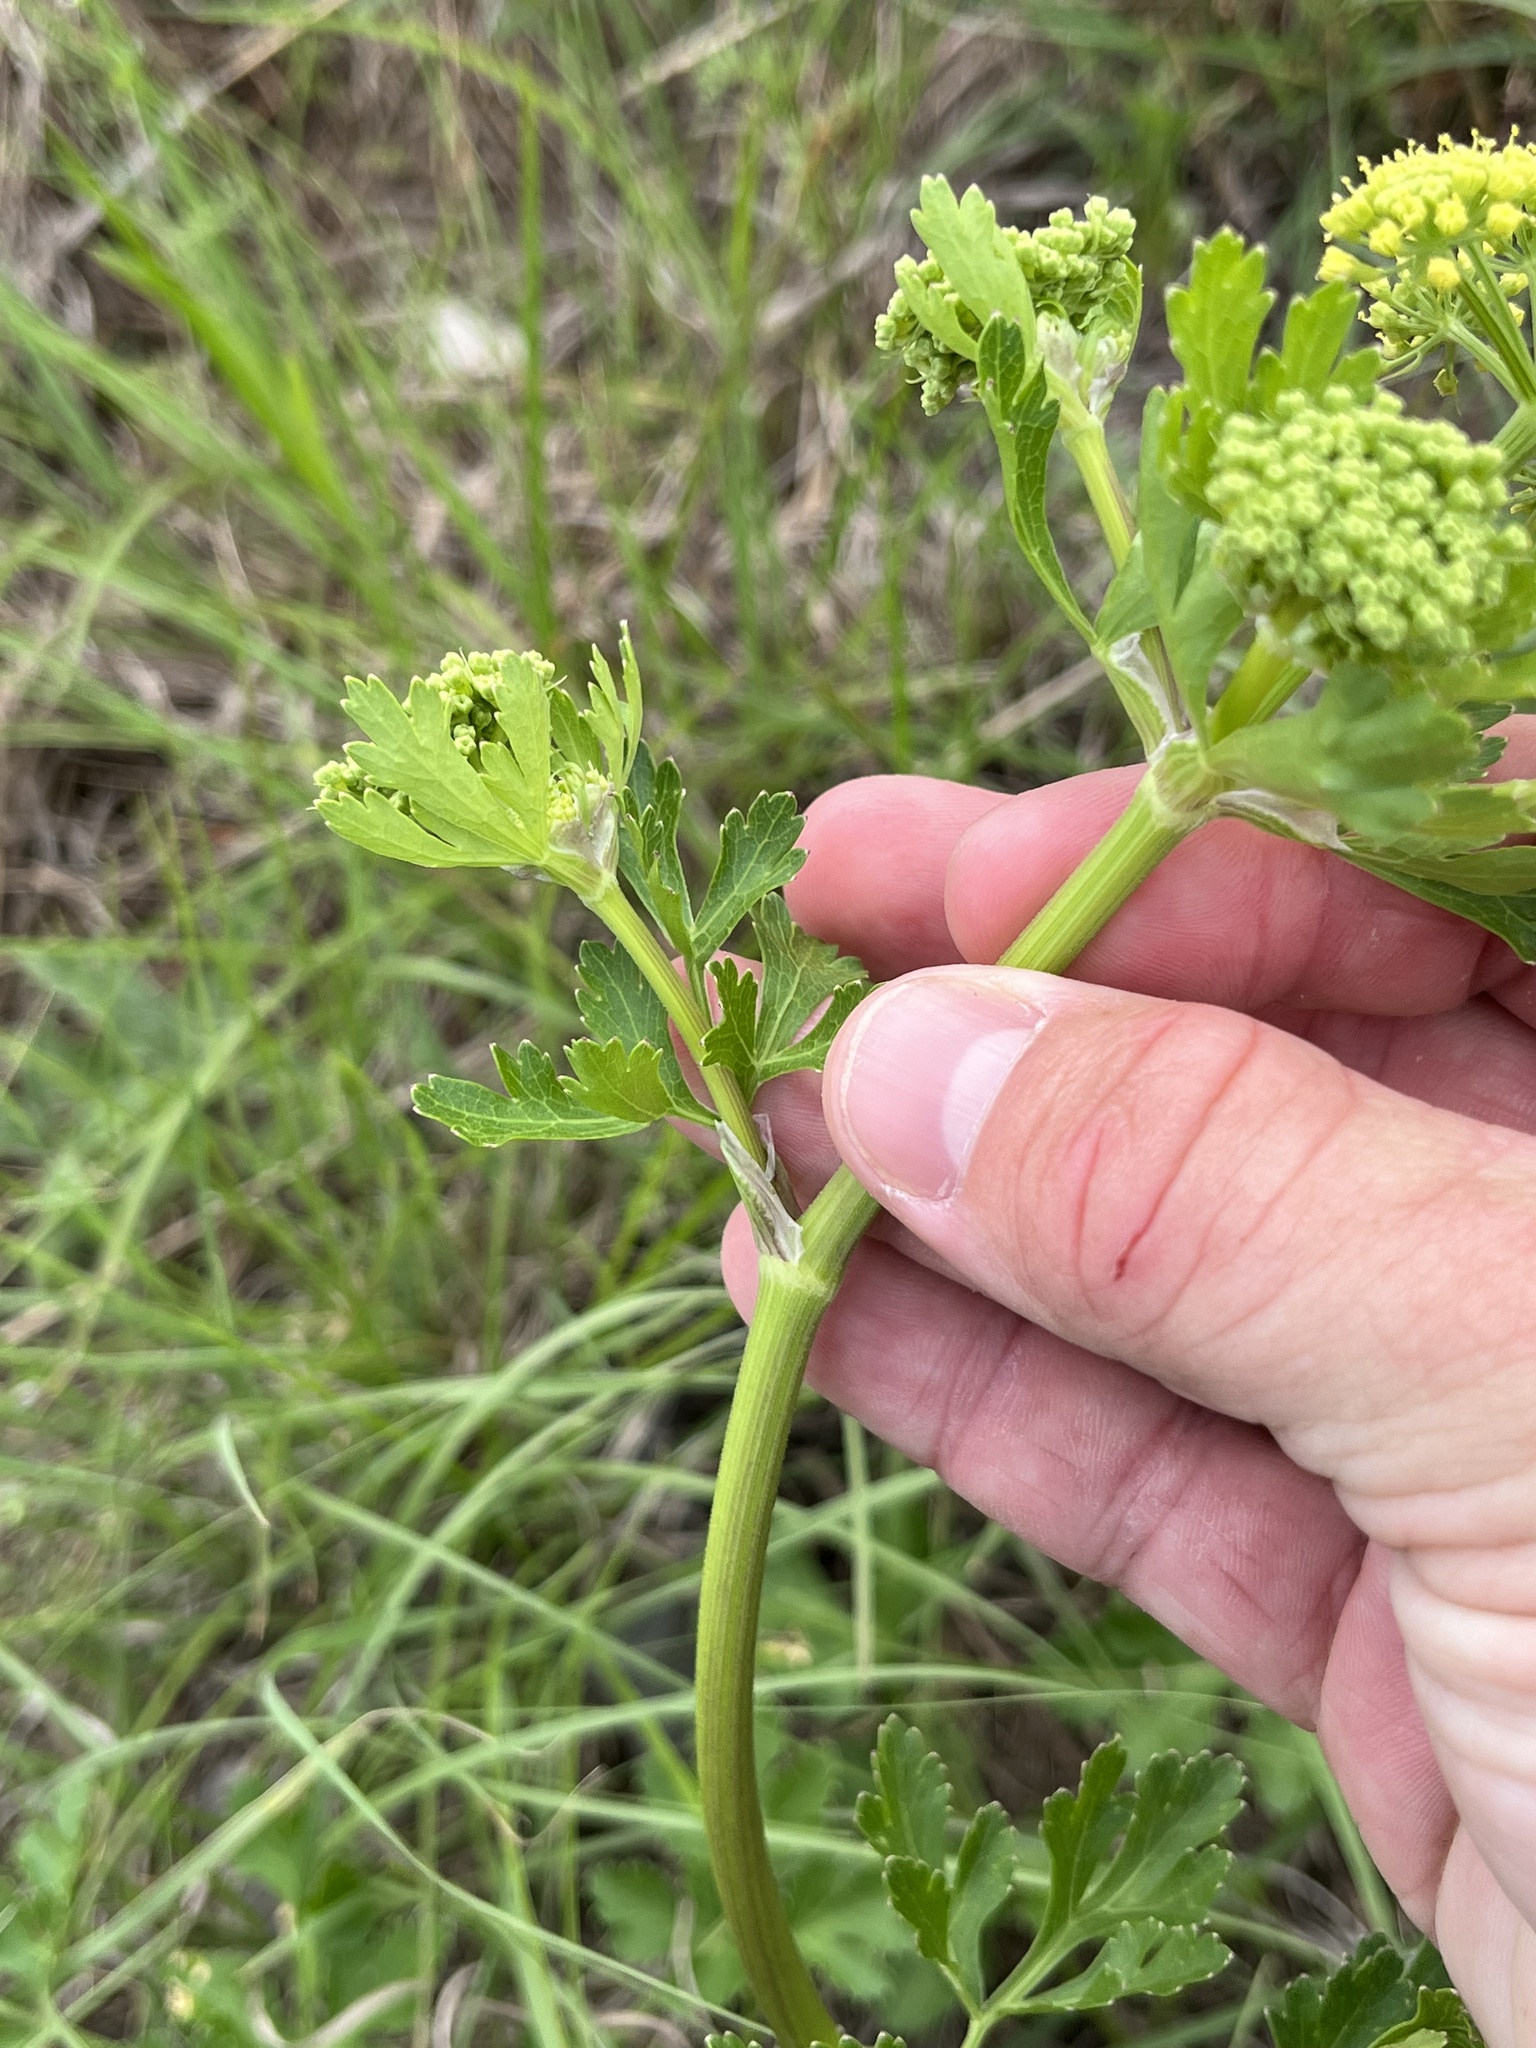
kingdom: Plantae
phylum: Tracheophyta
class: Magnoliopsida
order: Apiales
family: Apiaceae
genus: Polytaenia
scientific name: Polytaenia texana
